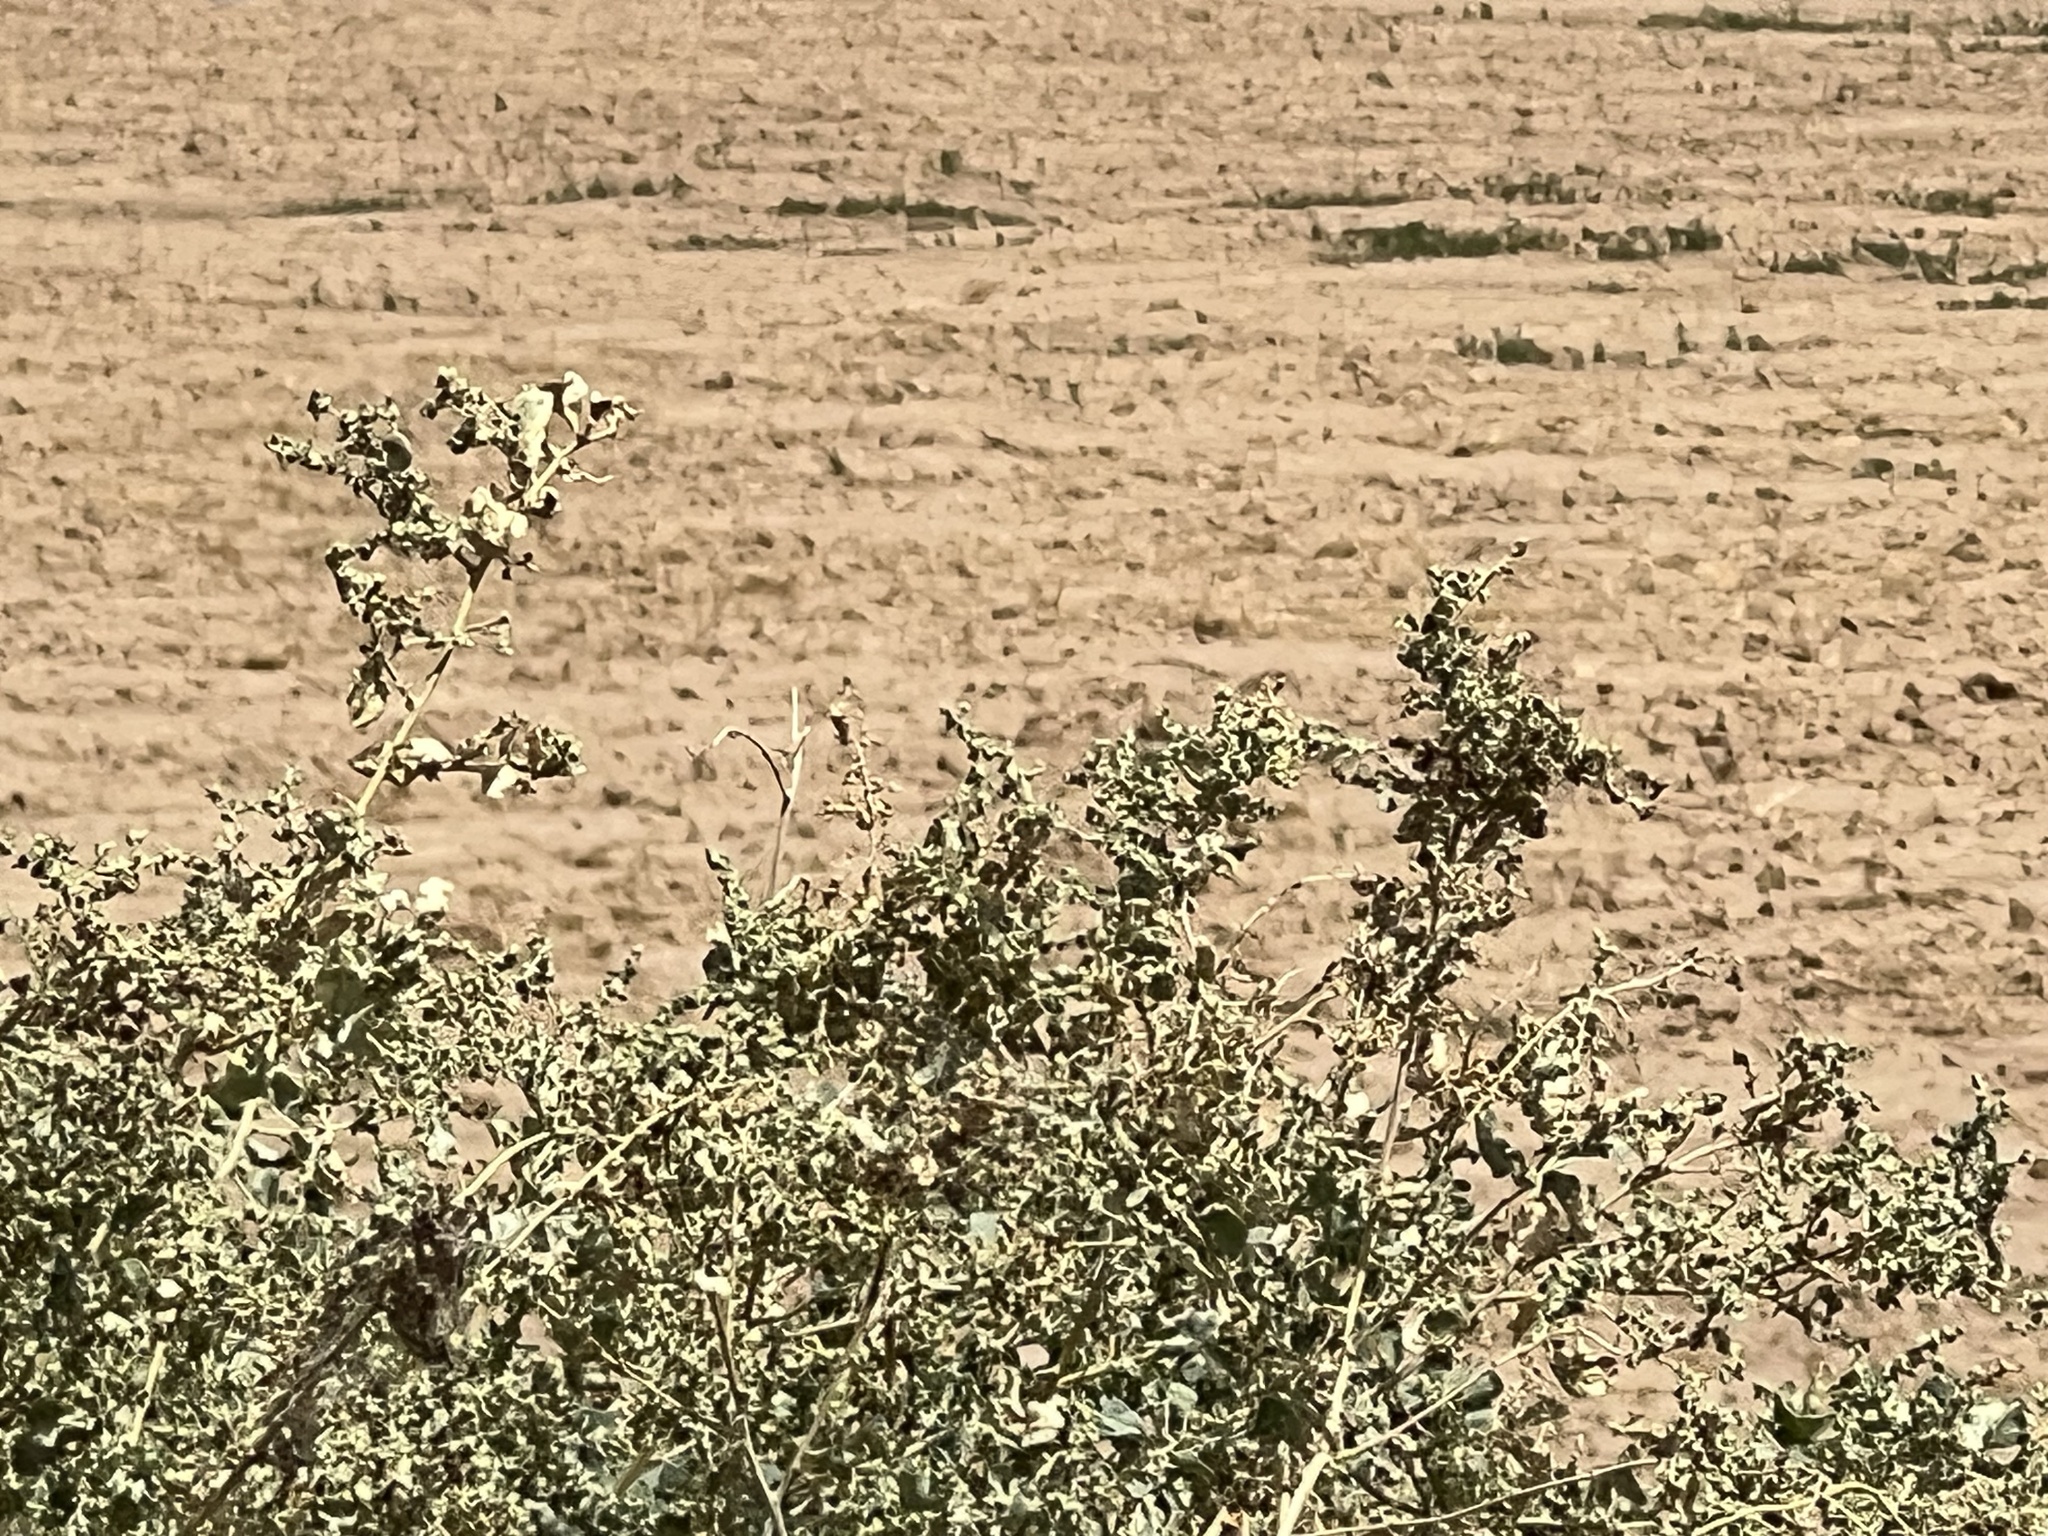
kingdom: Plantae
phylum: Tracheophyta
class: Magnoliopsida
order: Caryophyllales
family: Amaranthaceae
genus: Atriplex
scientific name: Atriplex lentiformis
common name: Big saltbush
